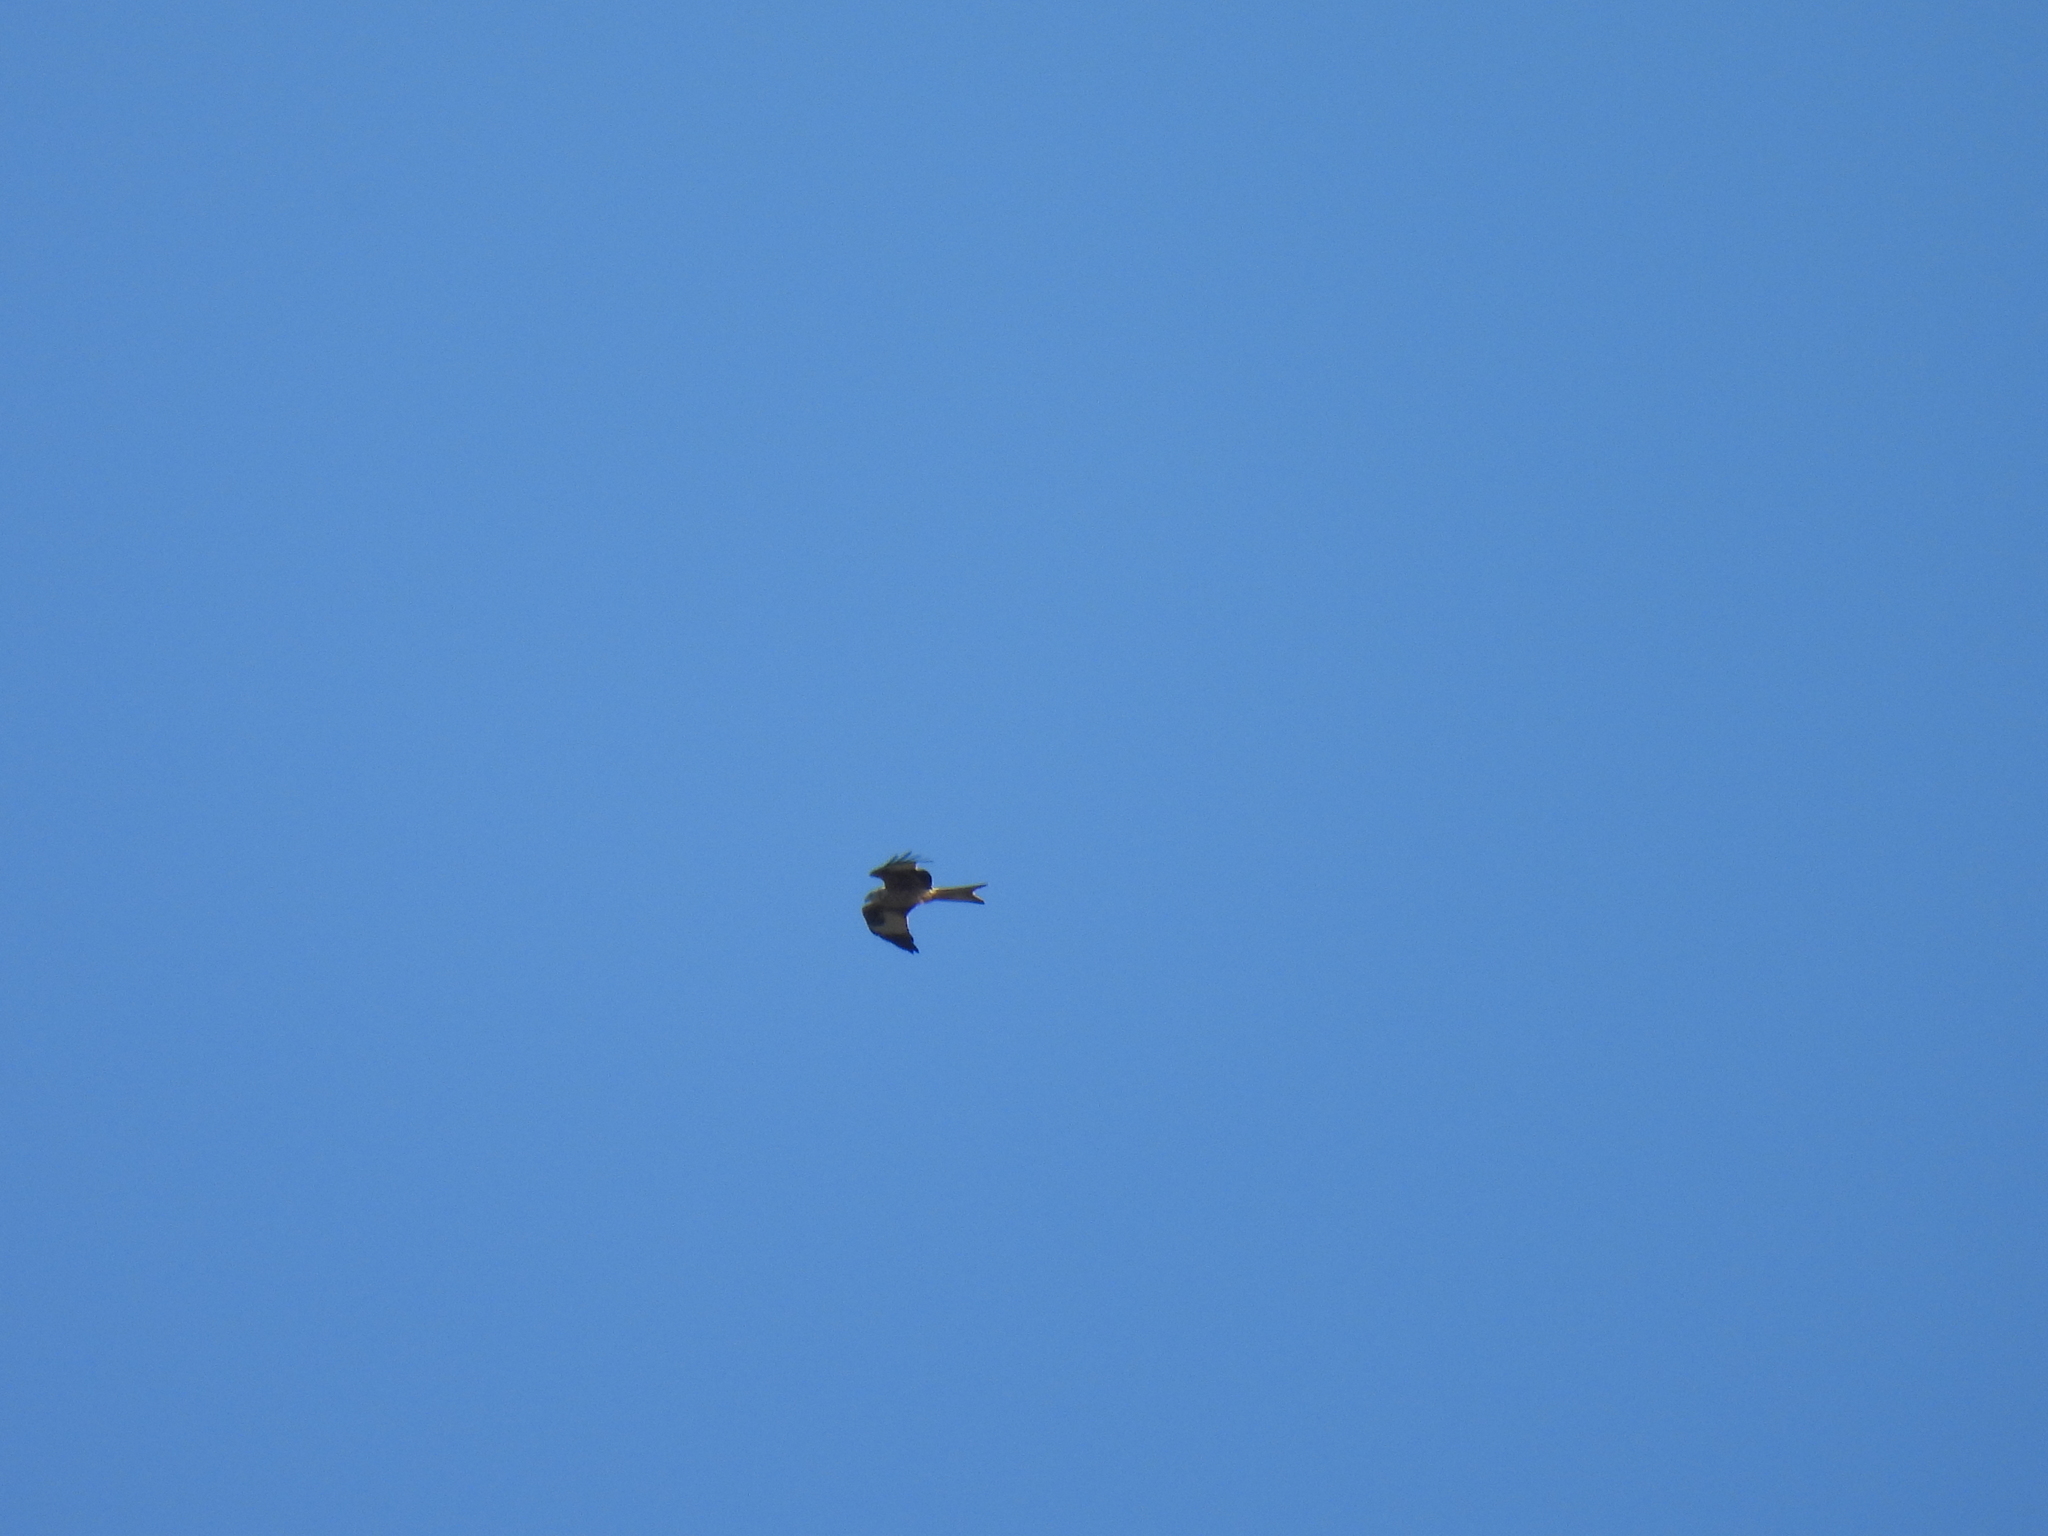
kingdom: Animalia
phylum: Chordata
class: Aves
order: Accipitriformes
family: Accipitridae
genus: Milvus
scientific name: Milvus milvus
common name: Red kite
